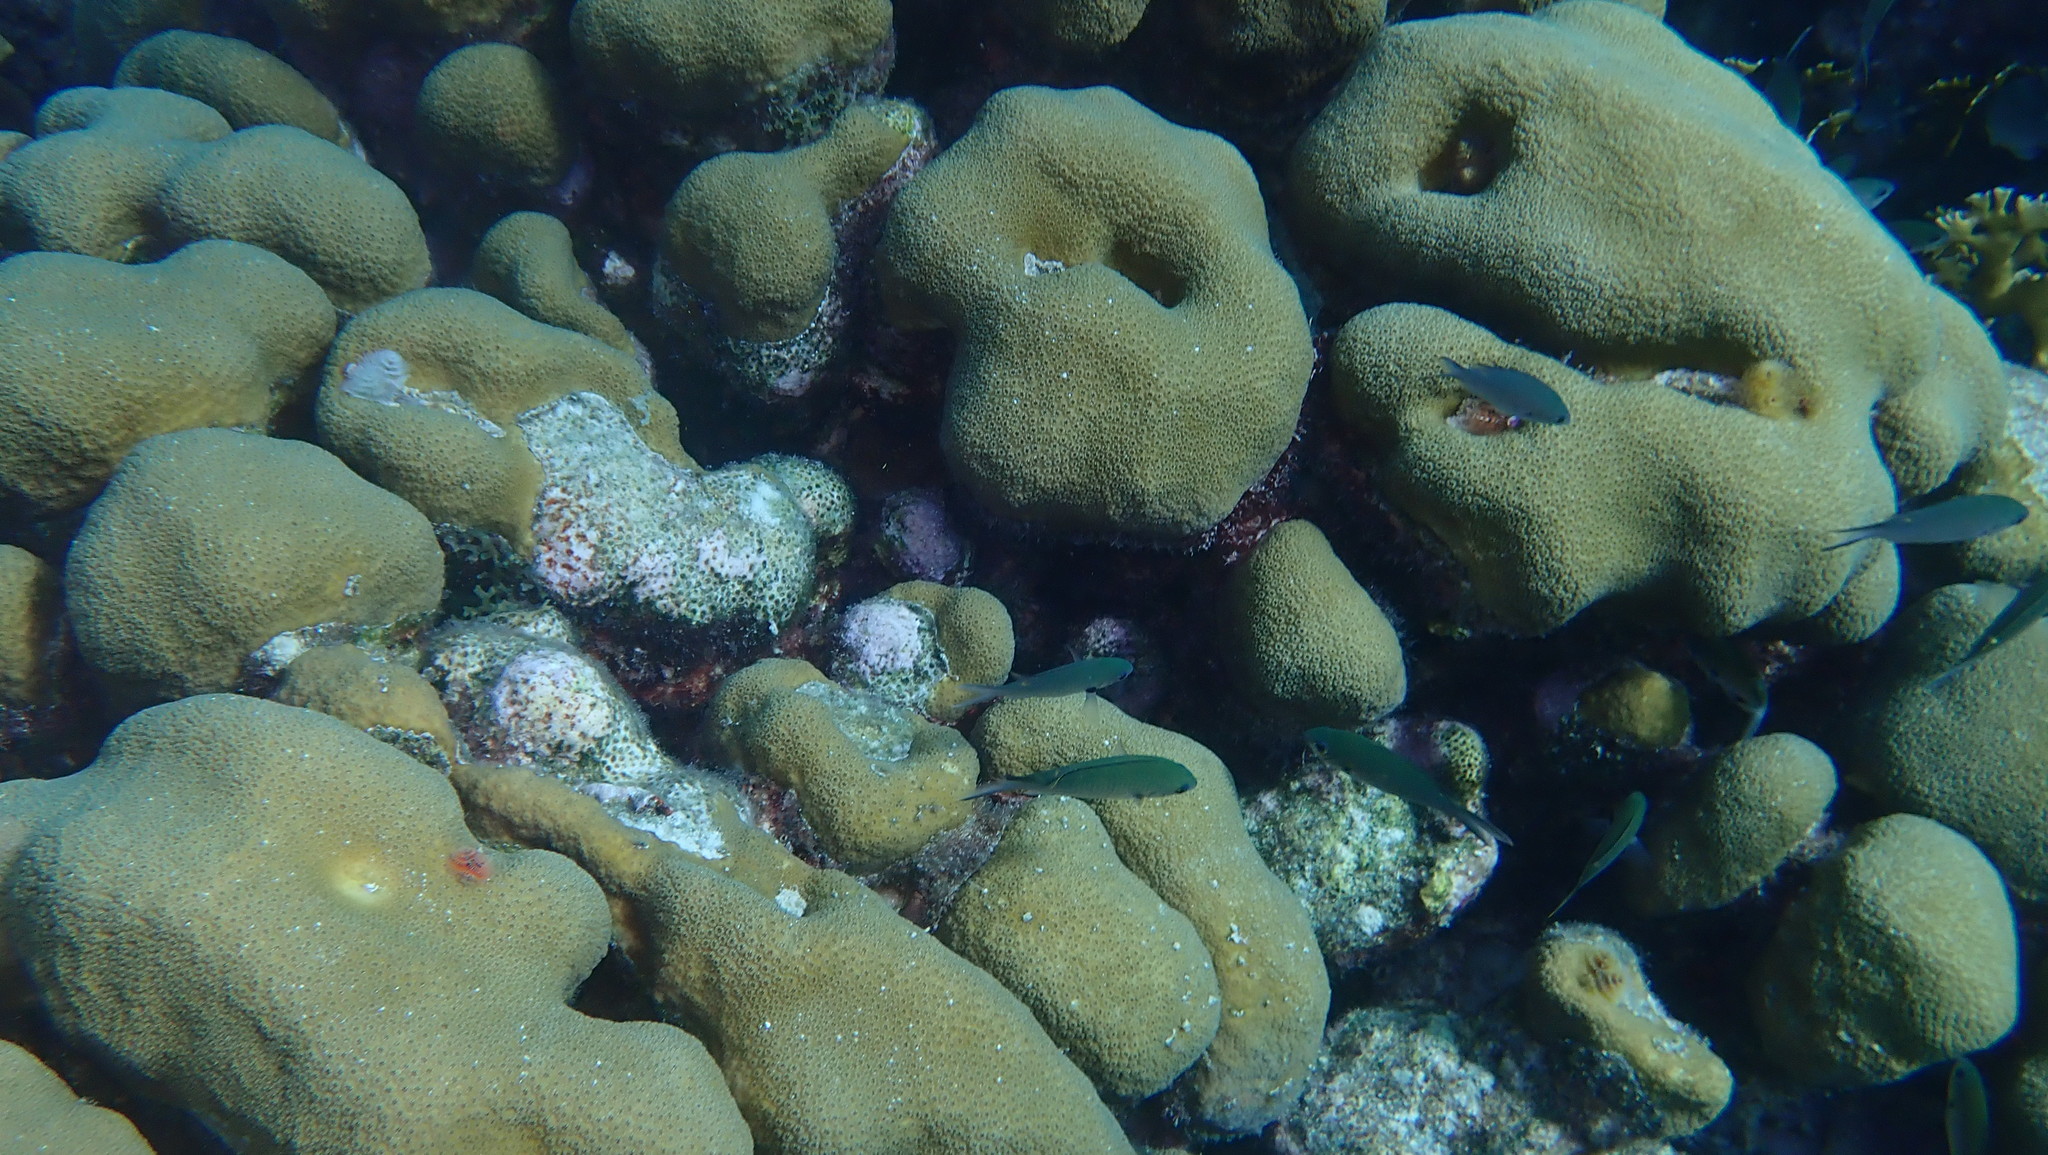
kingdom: Animalia
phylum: Cnidaria
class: Anthozoa
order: Scleractinia
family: Merulinidae
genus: Orbicella
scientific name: Orbicella annularis
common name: Boulder star coral
